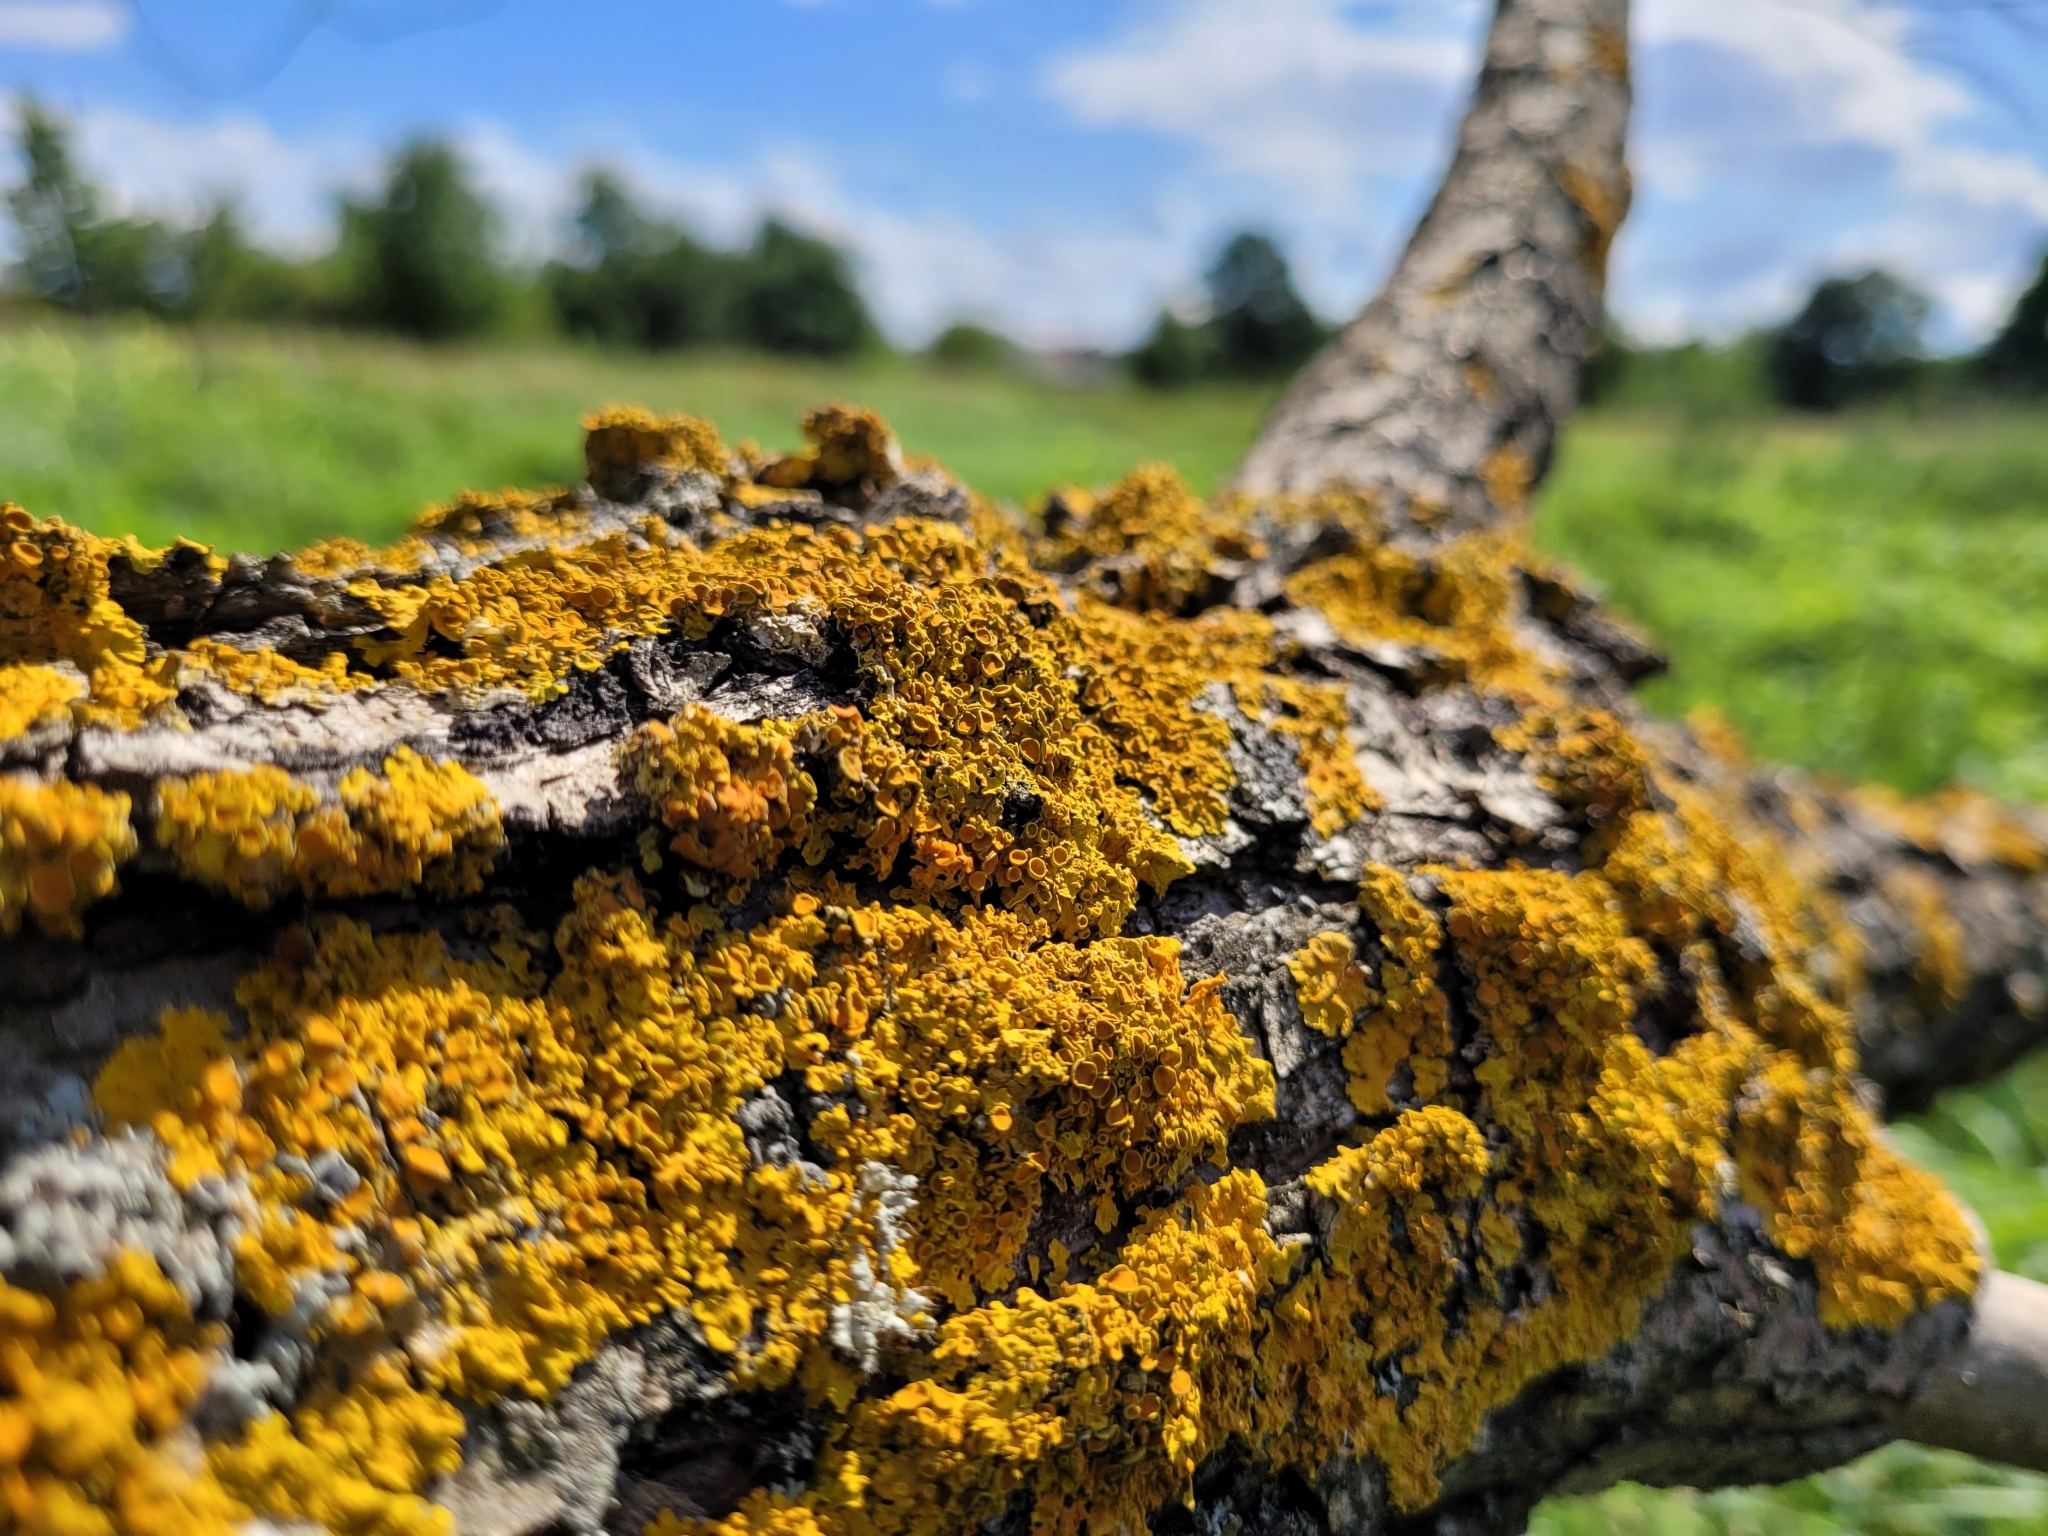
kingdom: Fungi
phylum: Ascomycota
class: Lecanoromycetes
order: Teloschistales
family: Teloschistaceae
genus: Xanthoria
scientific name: Xanthoria parietina
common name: Common orange lichen
